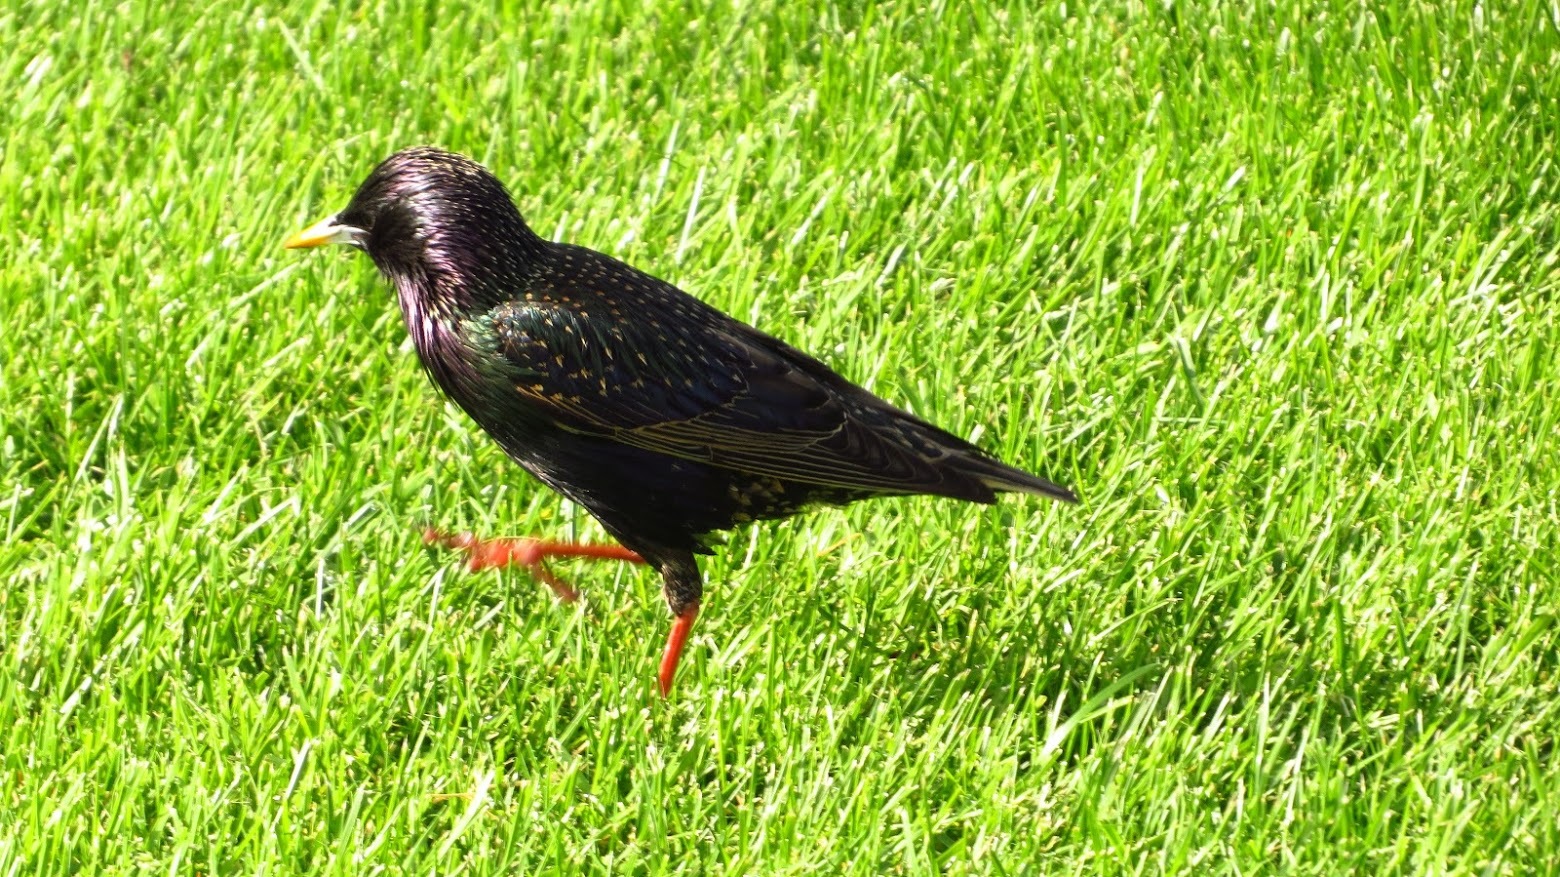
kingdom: Animalia
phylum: Chordata
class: Aves
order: Passeriformes
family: Sturnidae
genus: Sturnus
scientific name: Sturnus vulgaris
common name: Common starling
